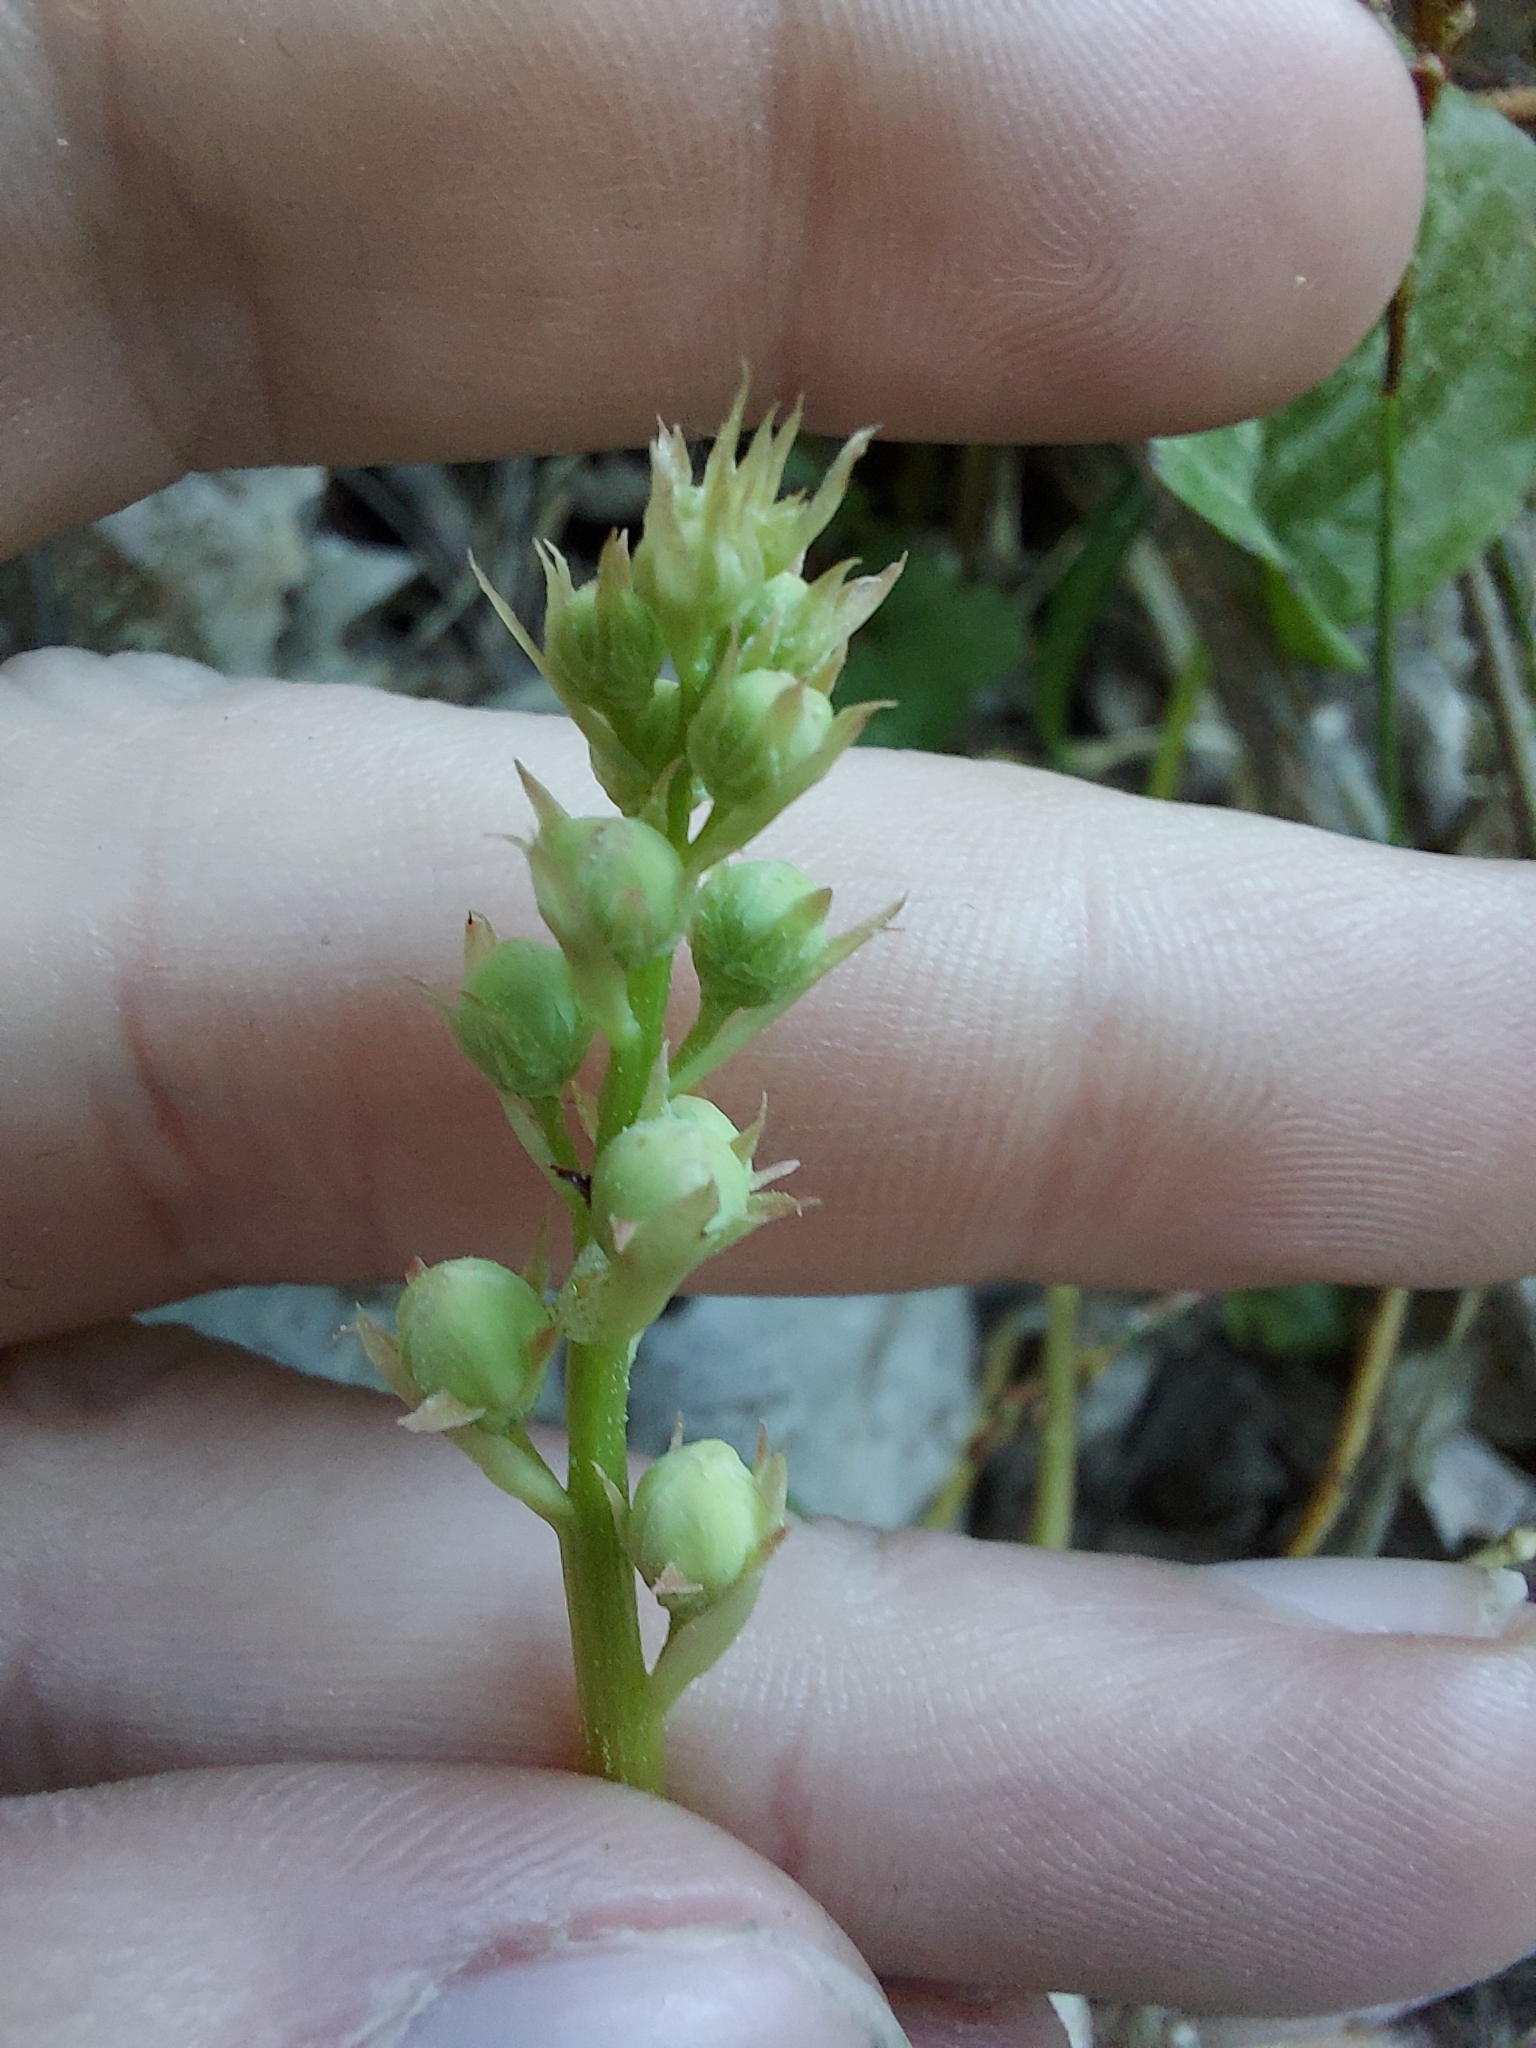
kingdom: Plantae
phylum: Tracheophyta
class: Magnoliopsida
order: Ericales
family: Ericaceae
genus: Pyrola
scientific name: Pyrola rotundifolia
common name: Round-leaved wintergreen
